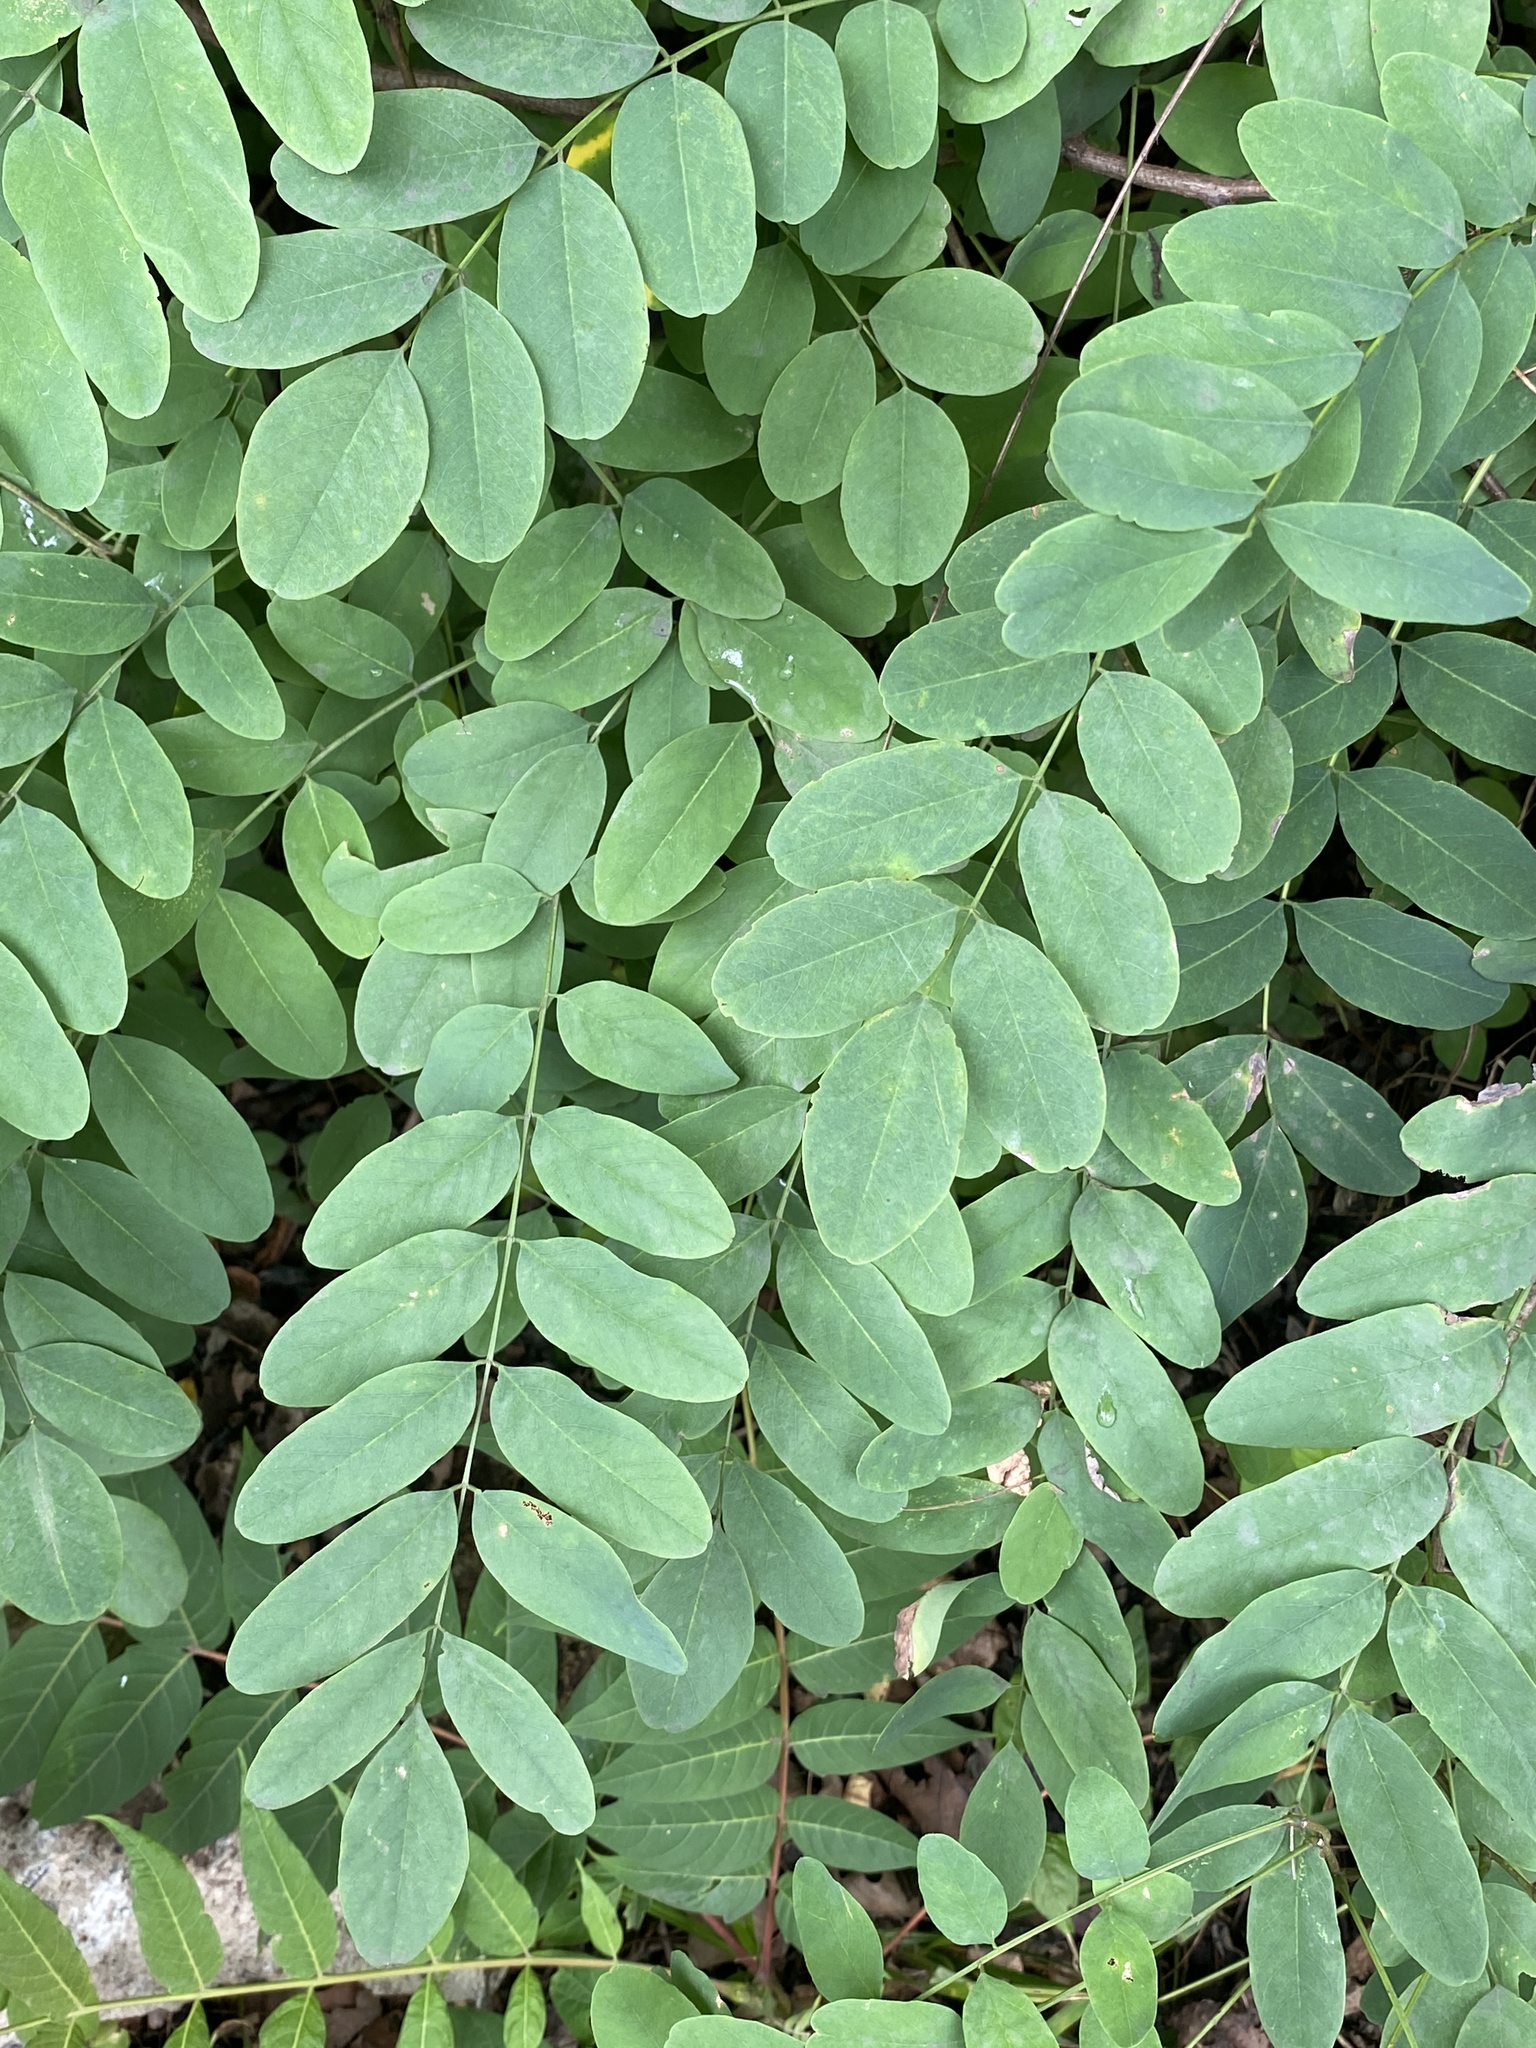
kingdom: Plantae
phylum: Tracheophyta
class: Magnoliopsida
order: Fabales
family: Fabaceae
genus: Robinia
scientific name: Robinia pseudoacacia
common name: Black locust
